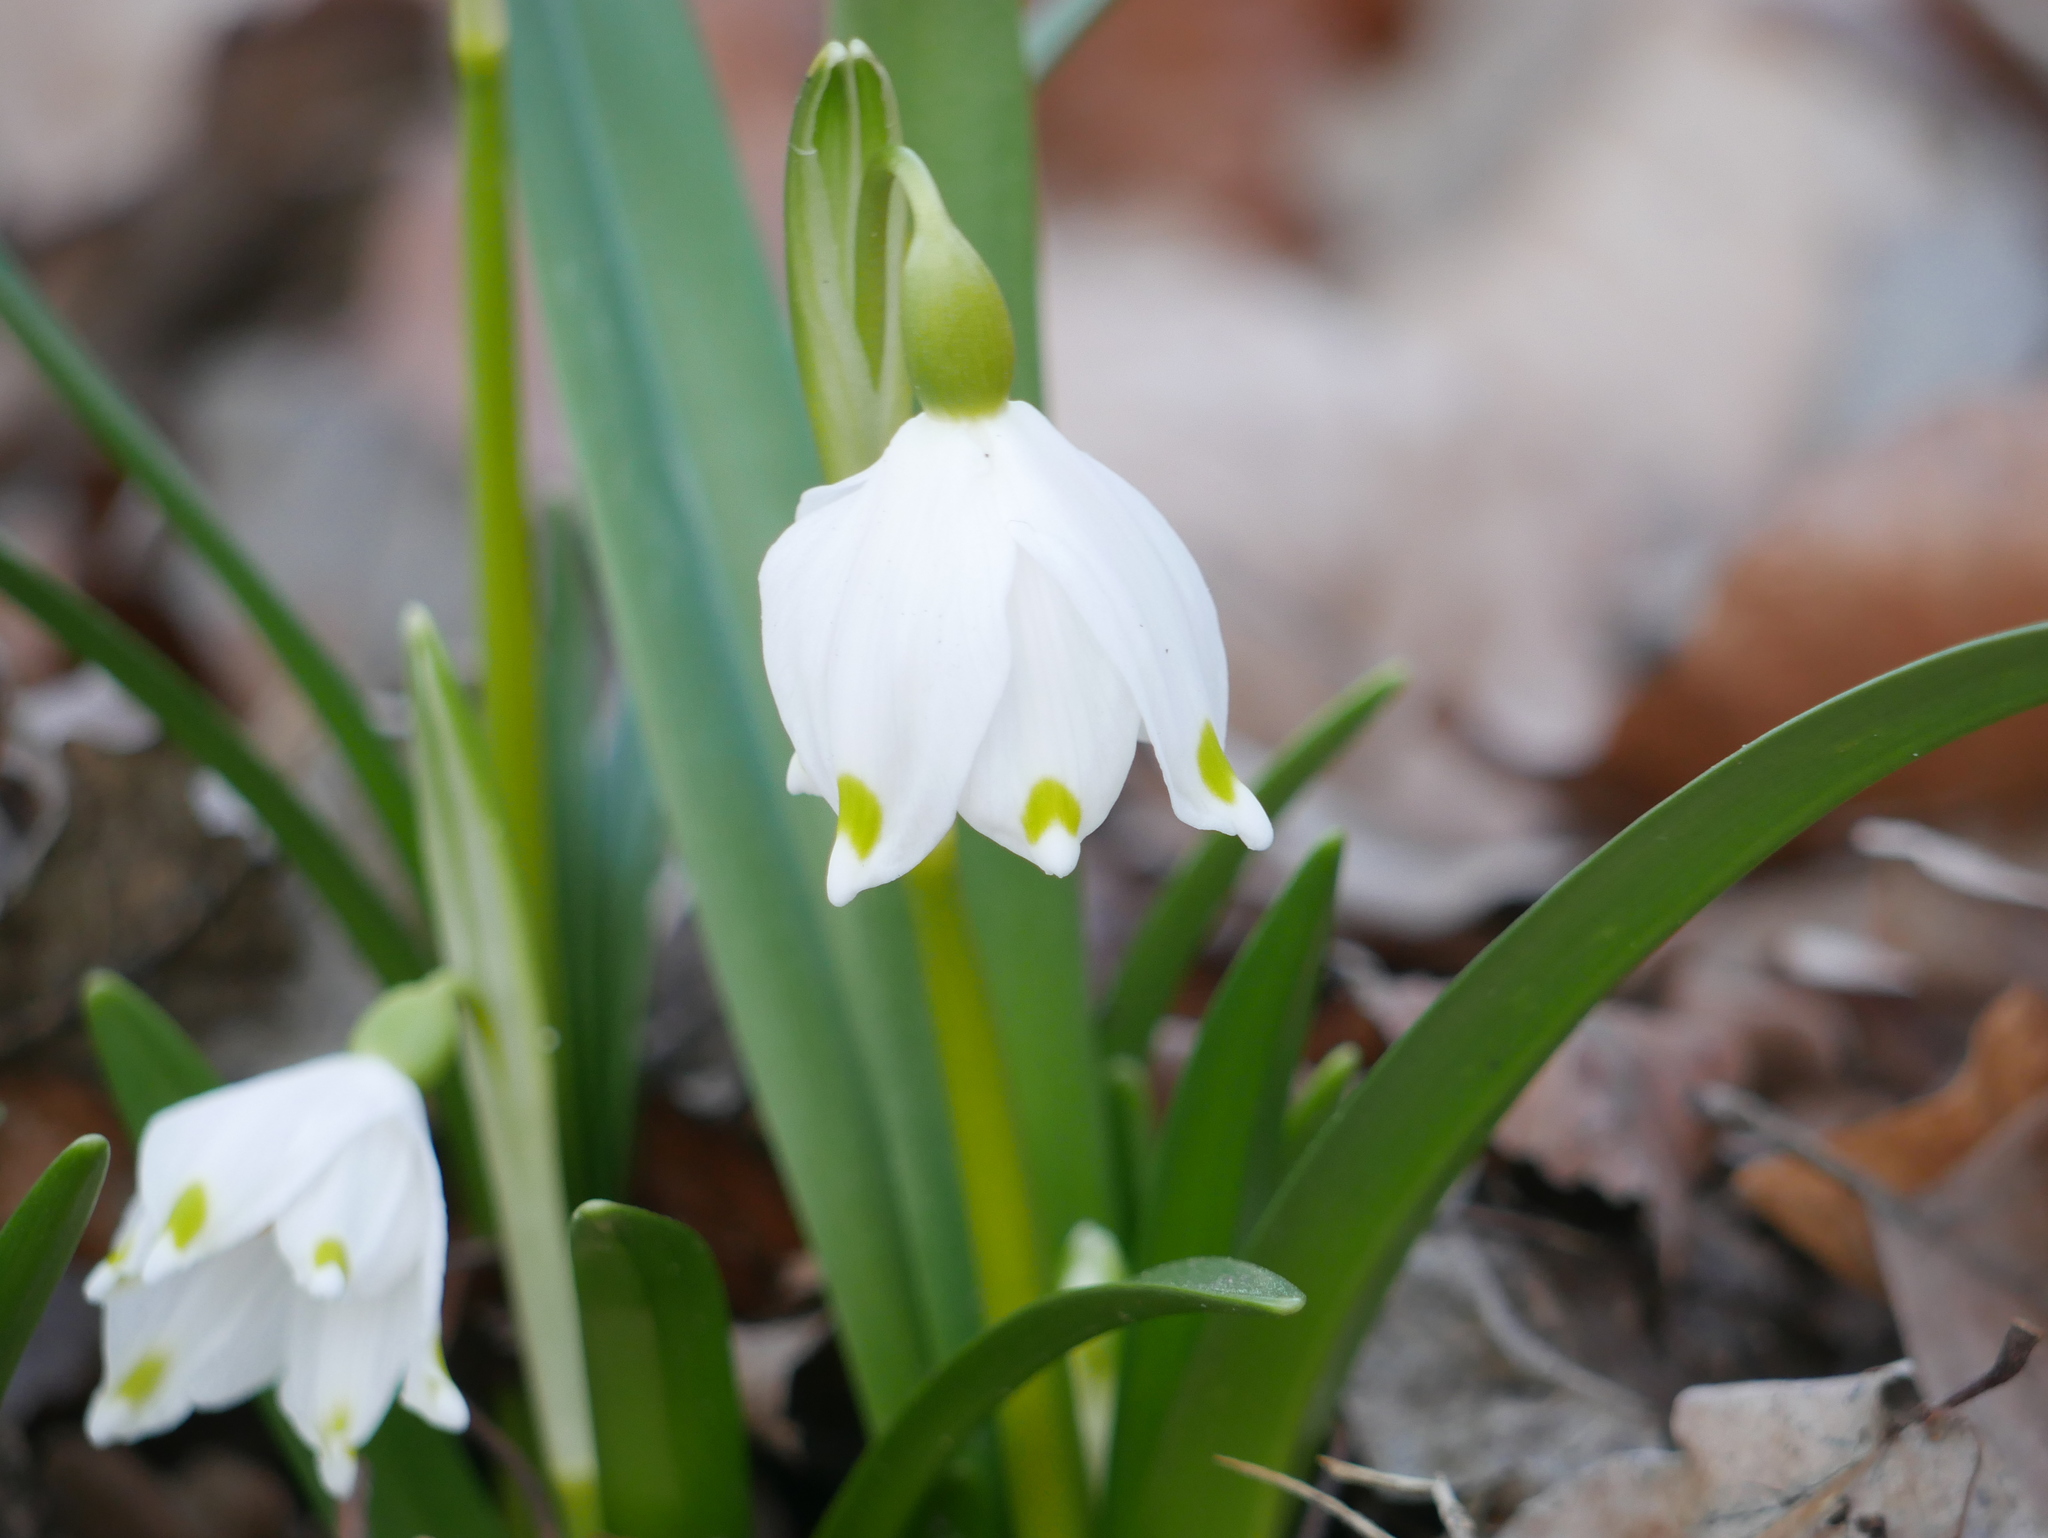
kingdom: Plantae
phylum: Tracheophyta
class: Liliopsida
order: Asparagales
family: Amaryllidaceae
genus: Leucojum
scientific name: Leucojum vernum
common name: Spring snowflake
